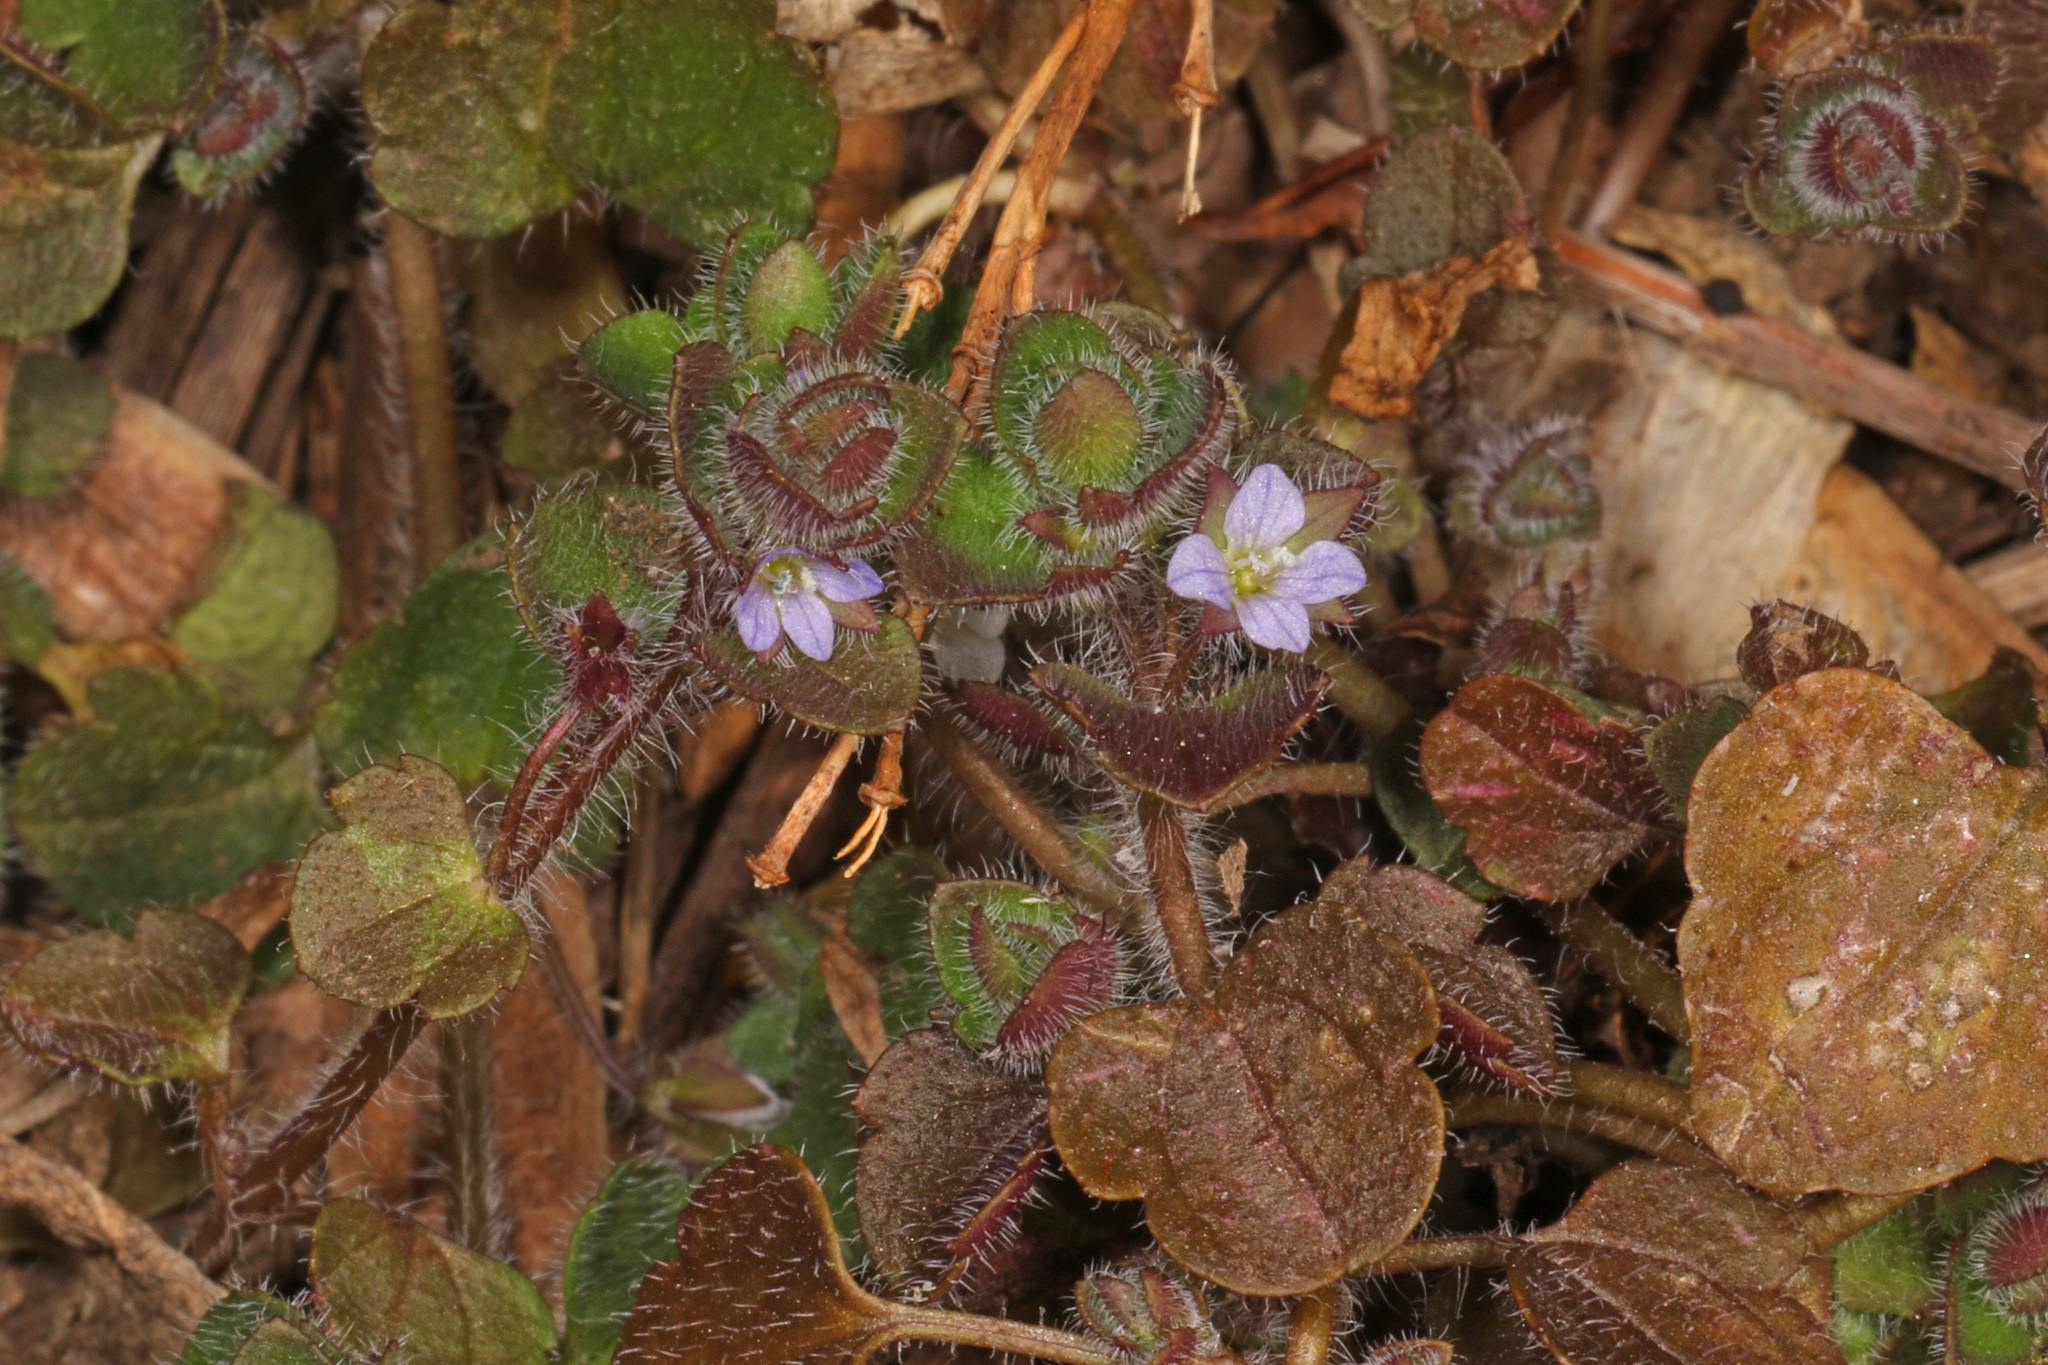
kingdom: Plantae
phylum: Tracheophyta
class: Magnoliopsida
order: Lamiales
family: Plantaginaceae
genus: Veronica
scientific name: Veronica hederifolia
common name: Ivy-leaved speedwell
